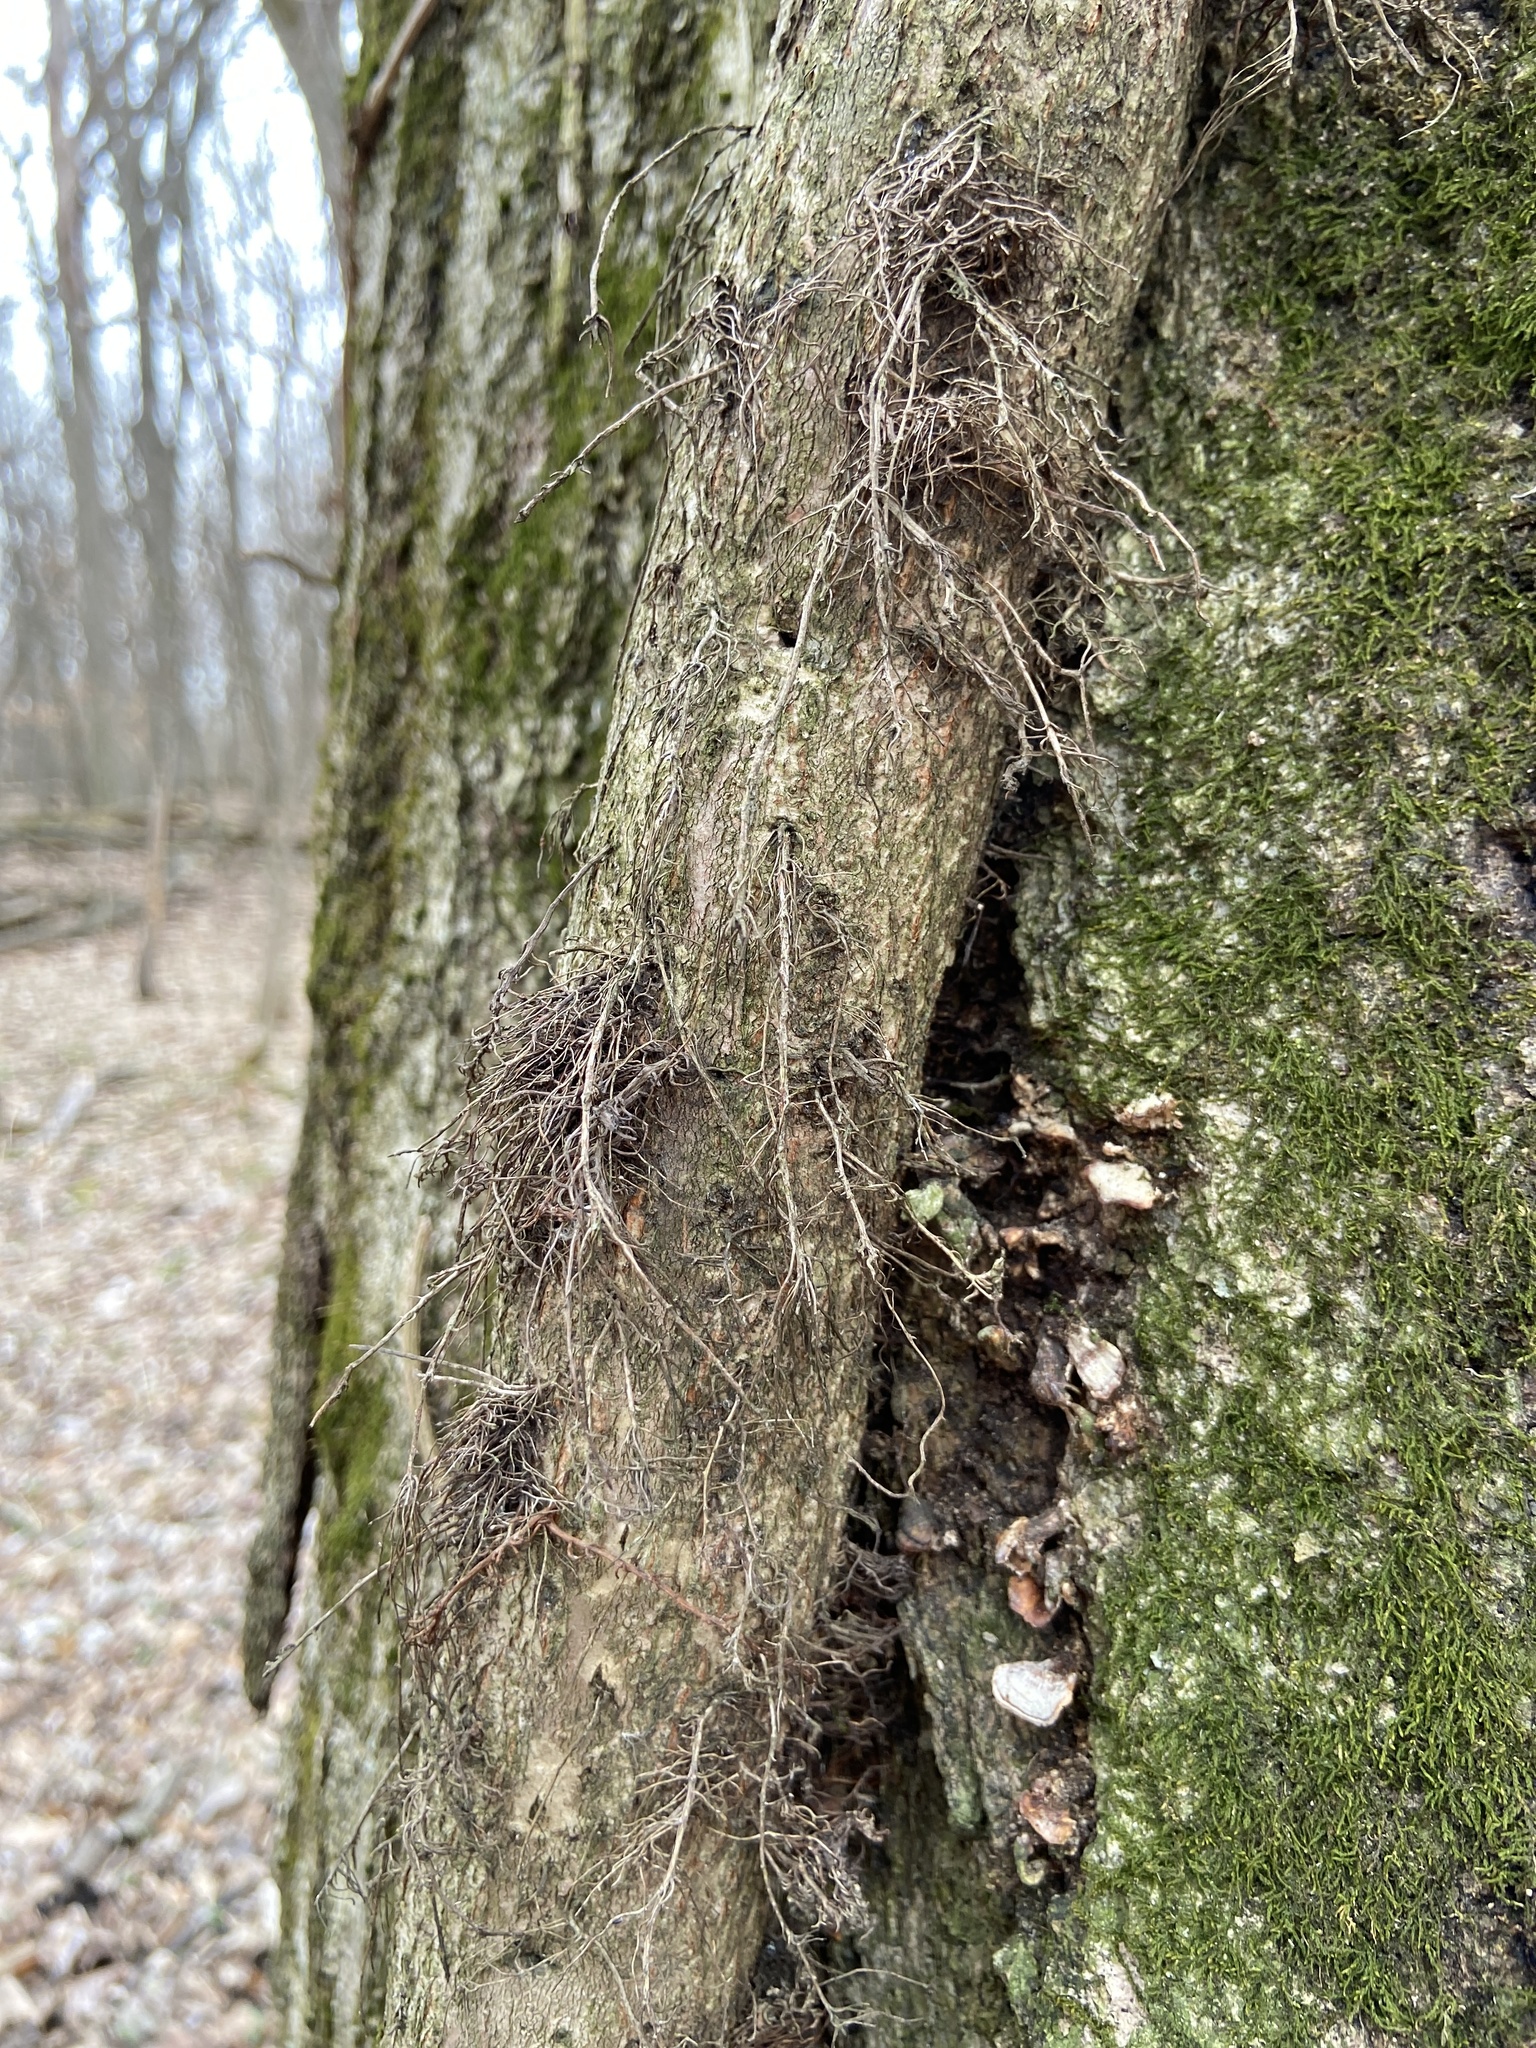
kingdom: Plantae
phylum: Tracheophyta
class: Magnoliopsida
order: Sapindales
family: Anacardiaceae
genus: Toxicodendron
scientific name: Toxicodendron radicans
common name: Poison ivy
